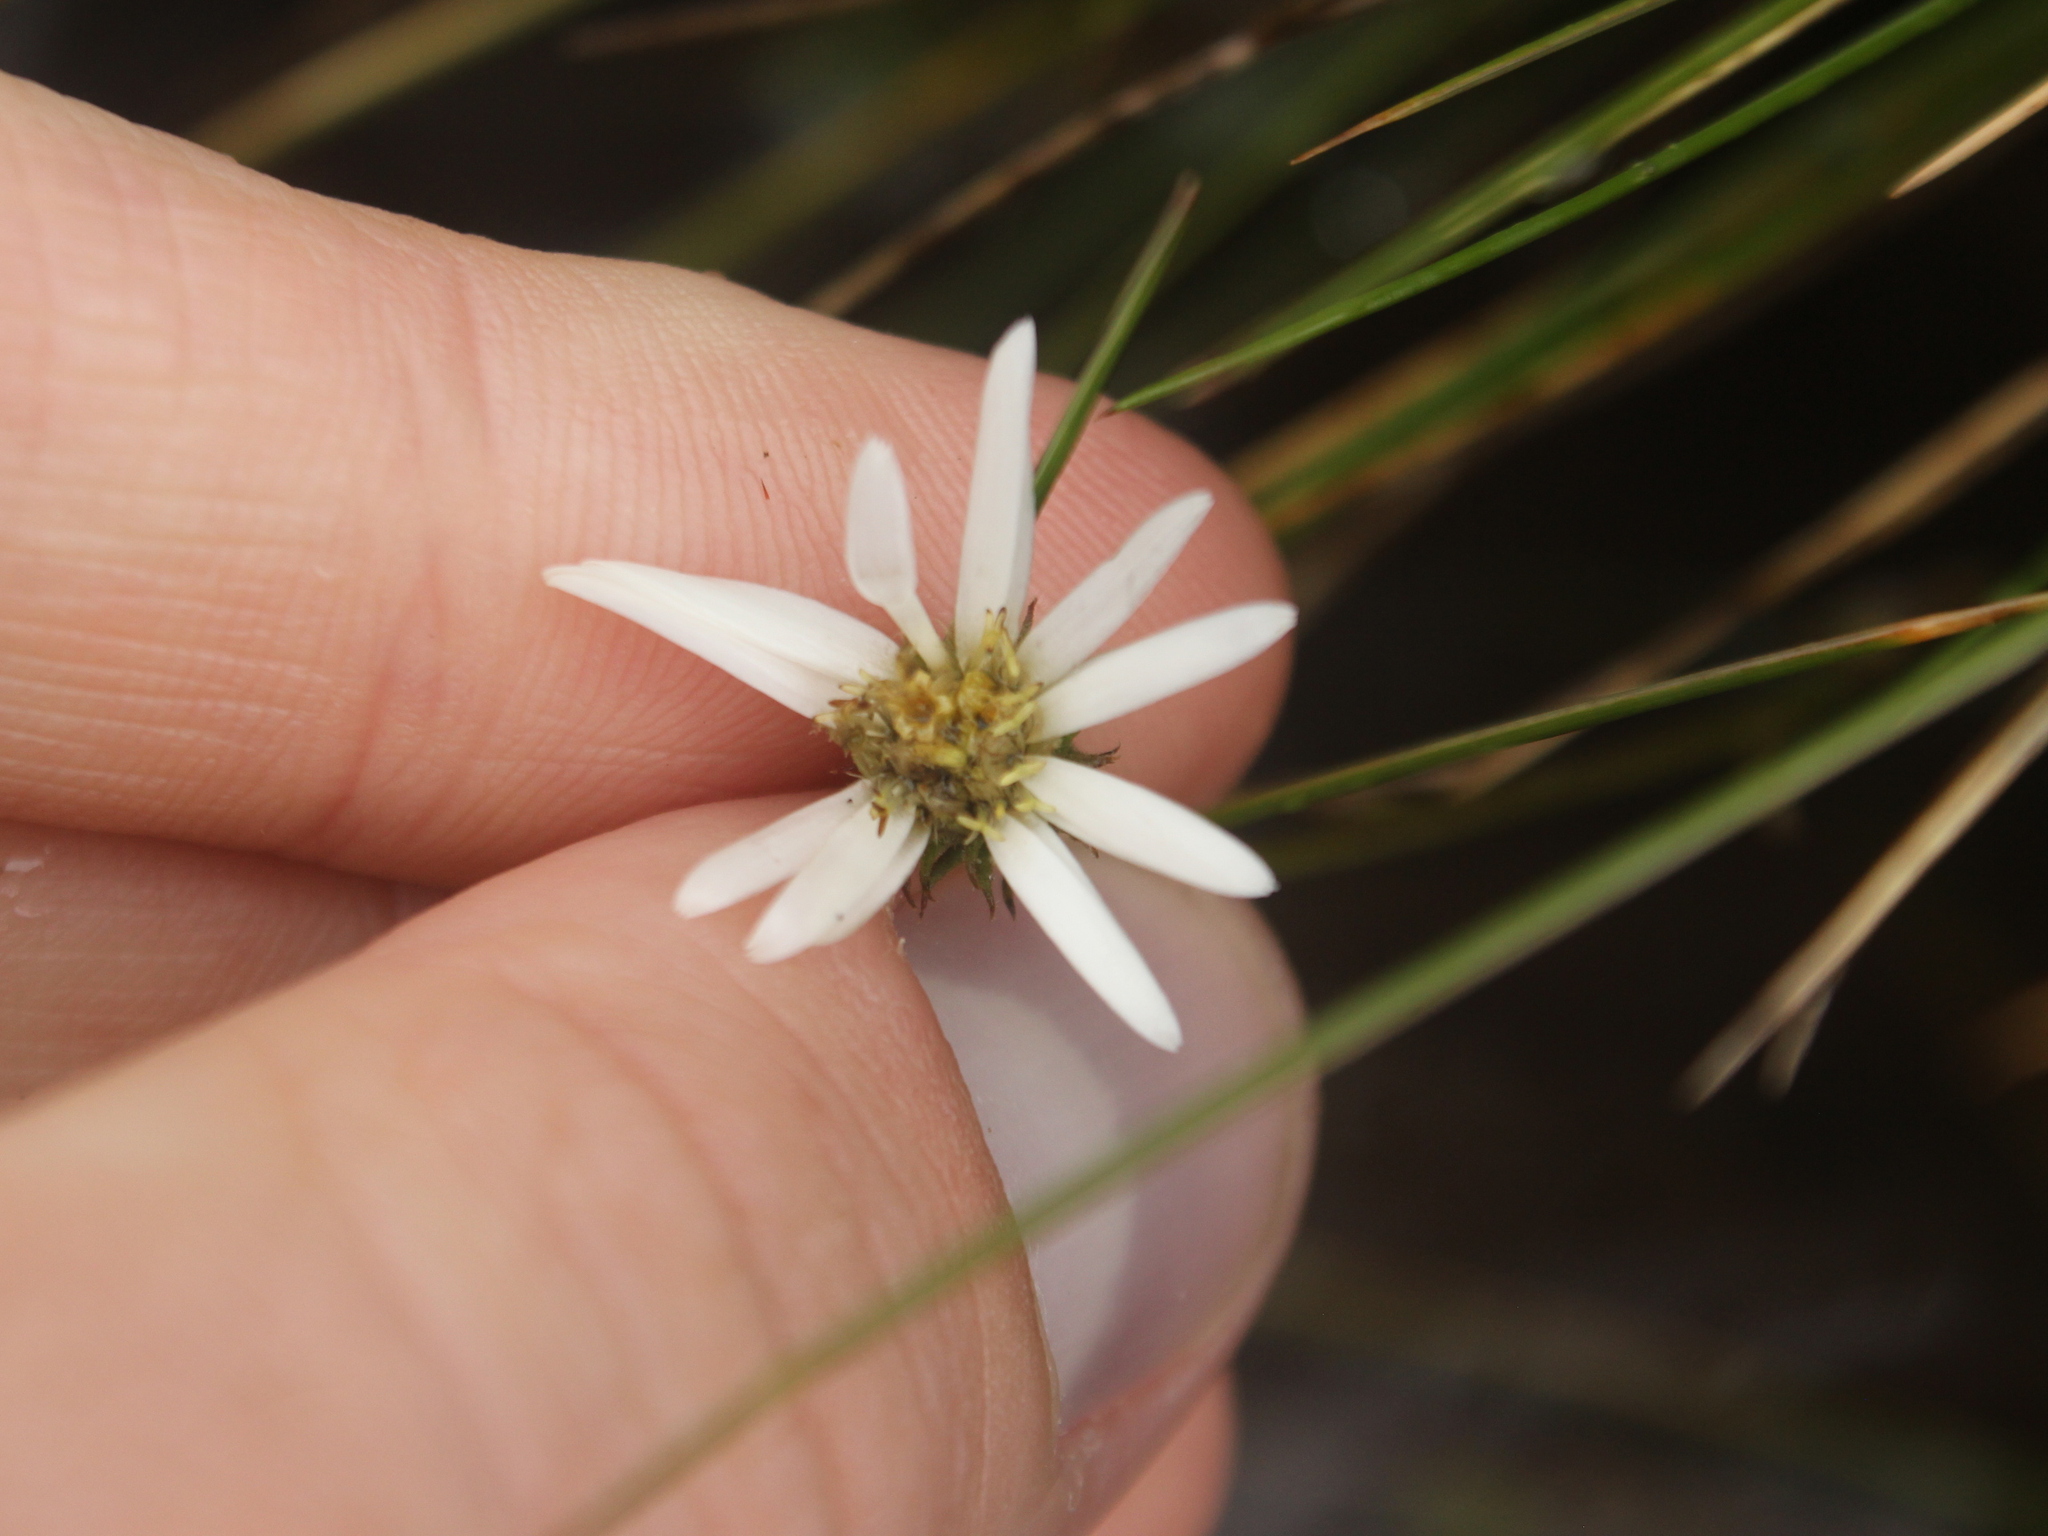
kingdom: Plantae
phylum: Tracheophyta
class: Magnoliopsida
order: Asterales
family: Asteraceae
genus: Celmisia
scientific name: Celmisia glandulosa
